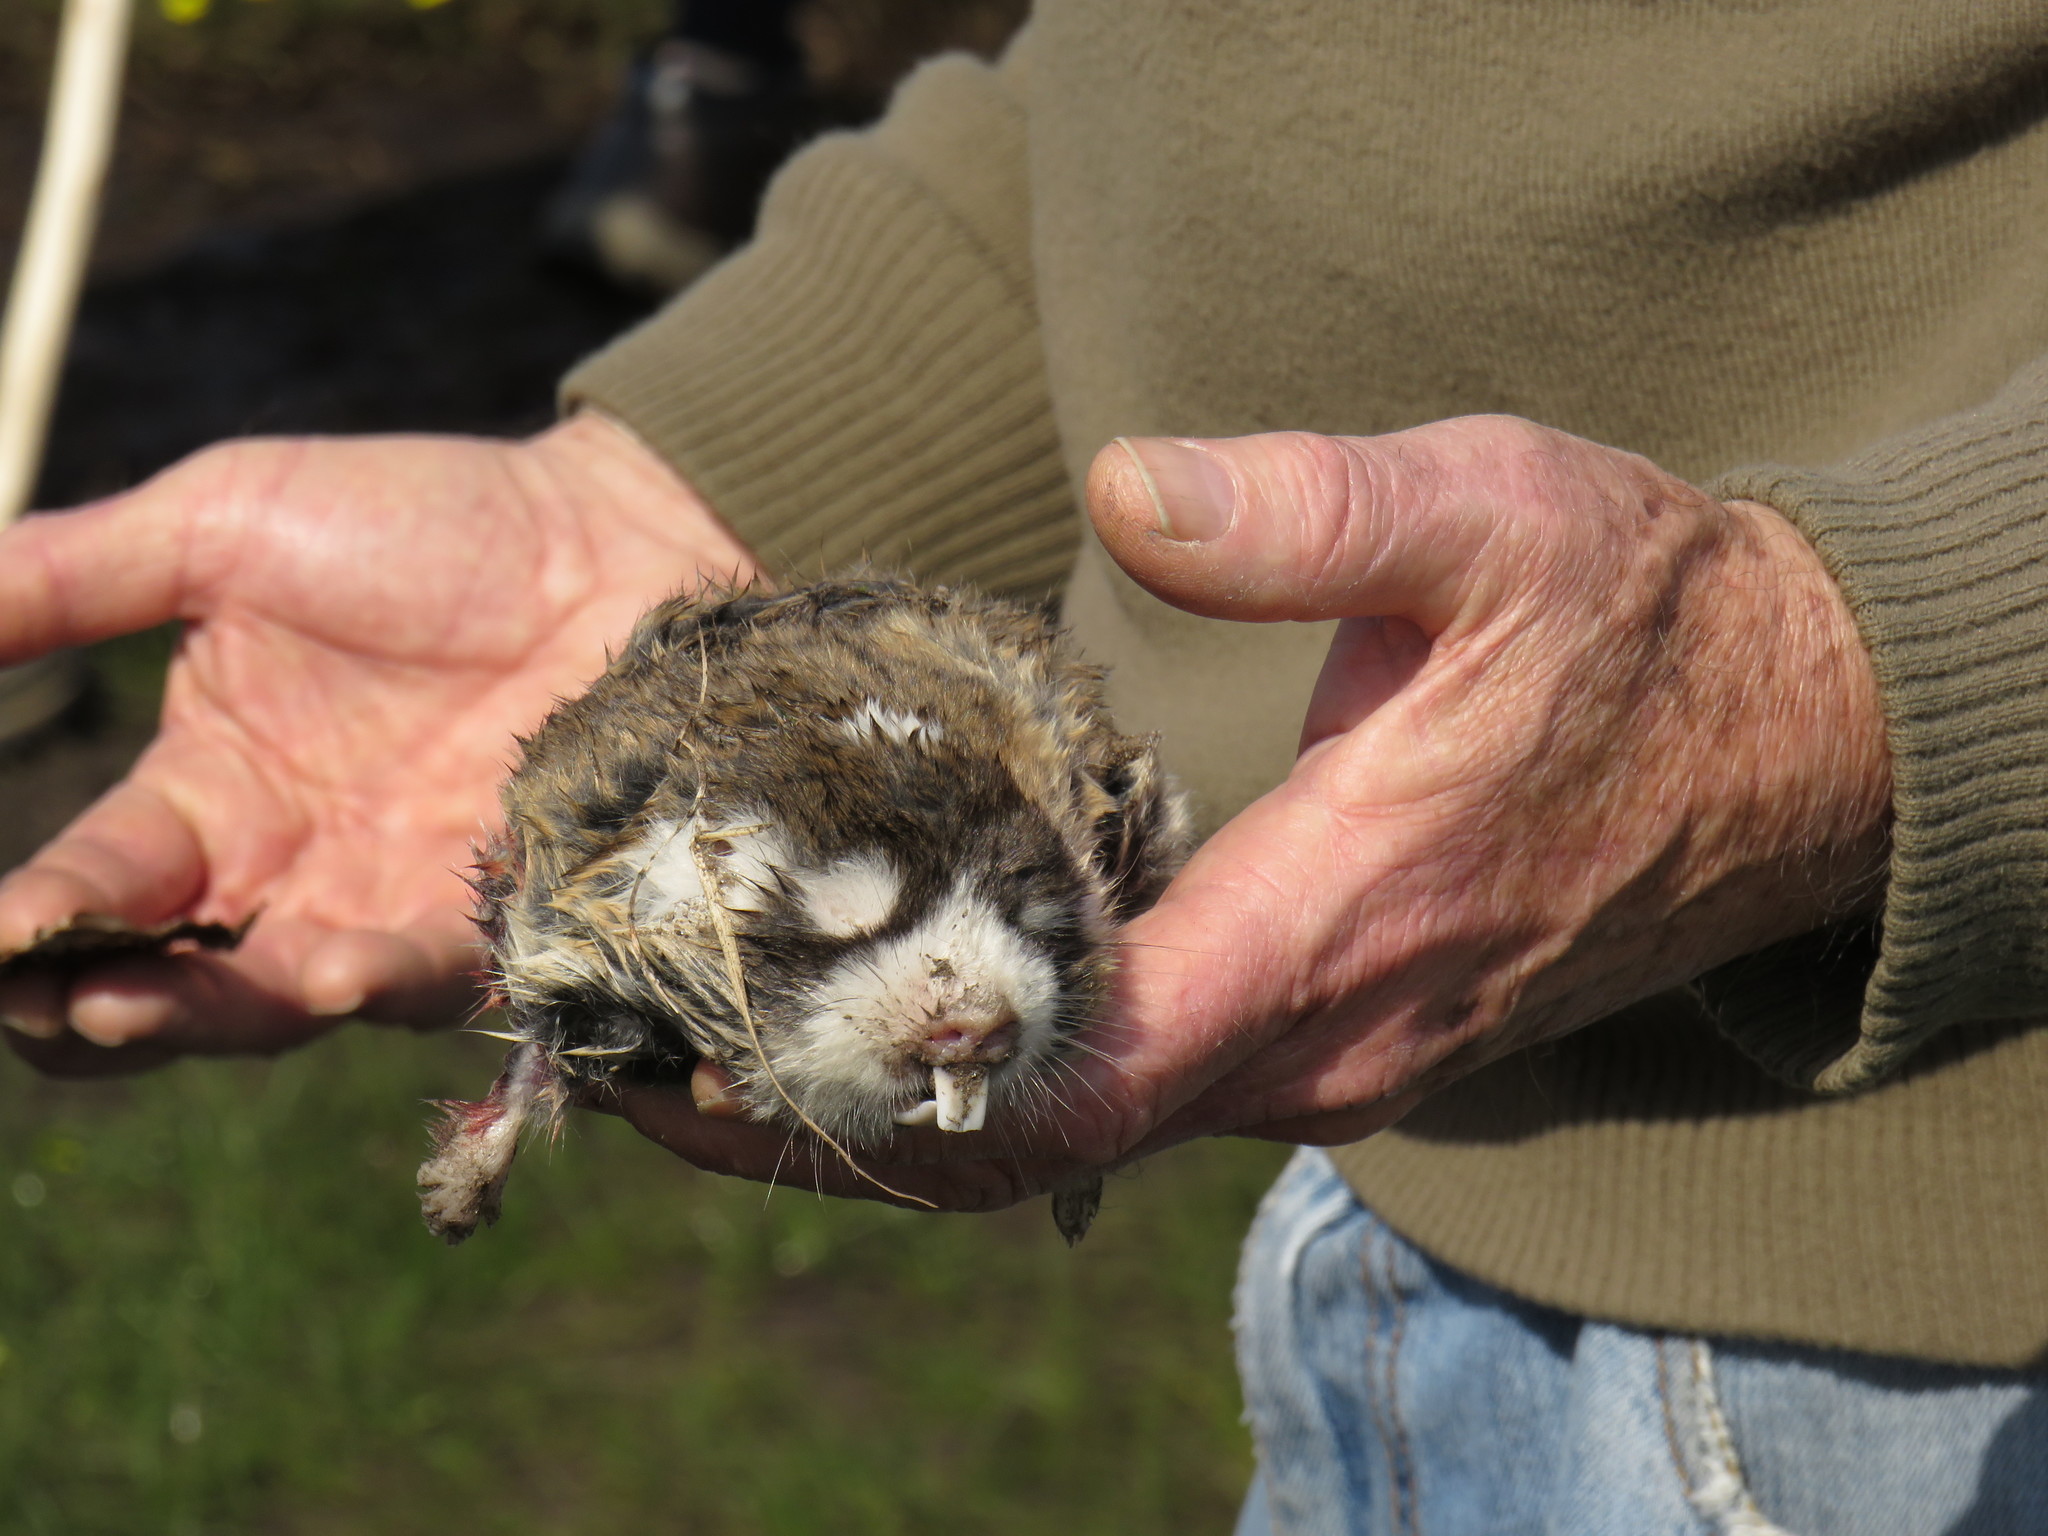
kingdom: Animalia
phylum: Chordata
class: Mammalia
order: Rodentia
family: Bathyergidae
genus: Georychus
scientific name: Georychus capensis
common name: Cape mole-rat
